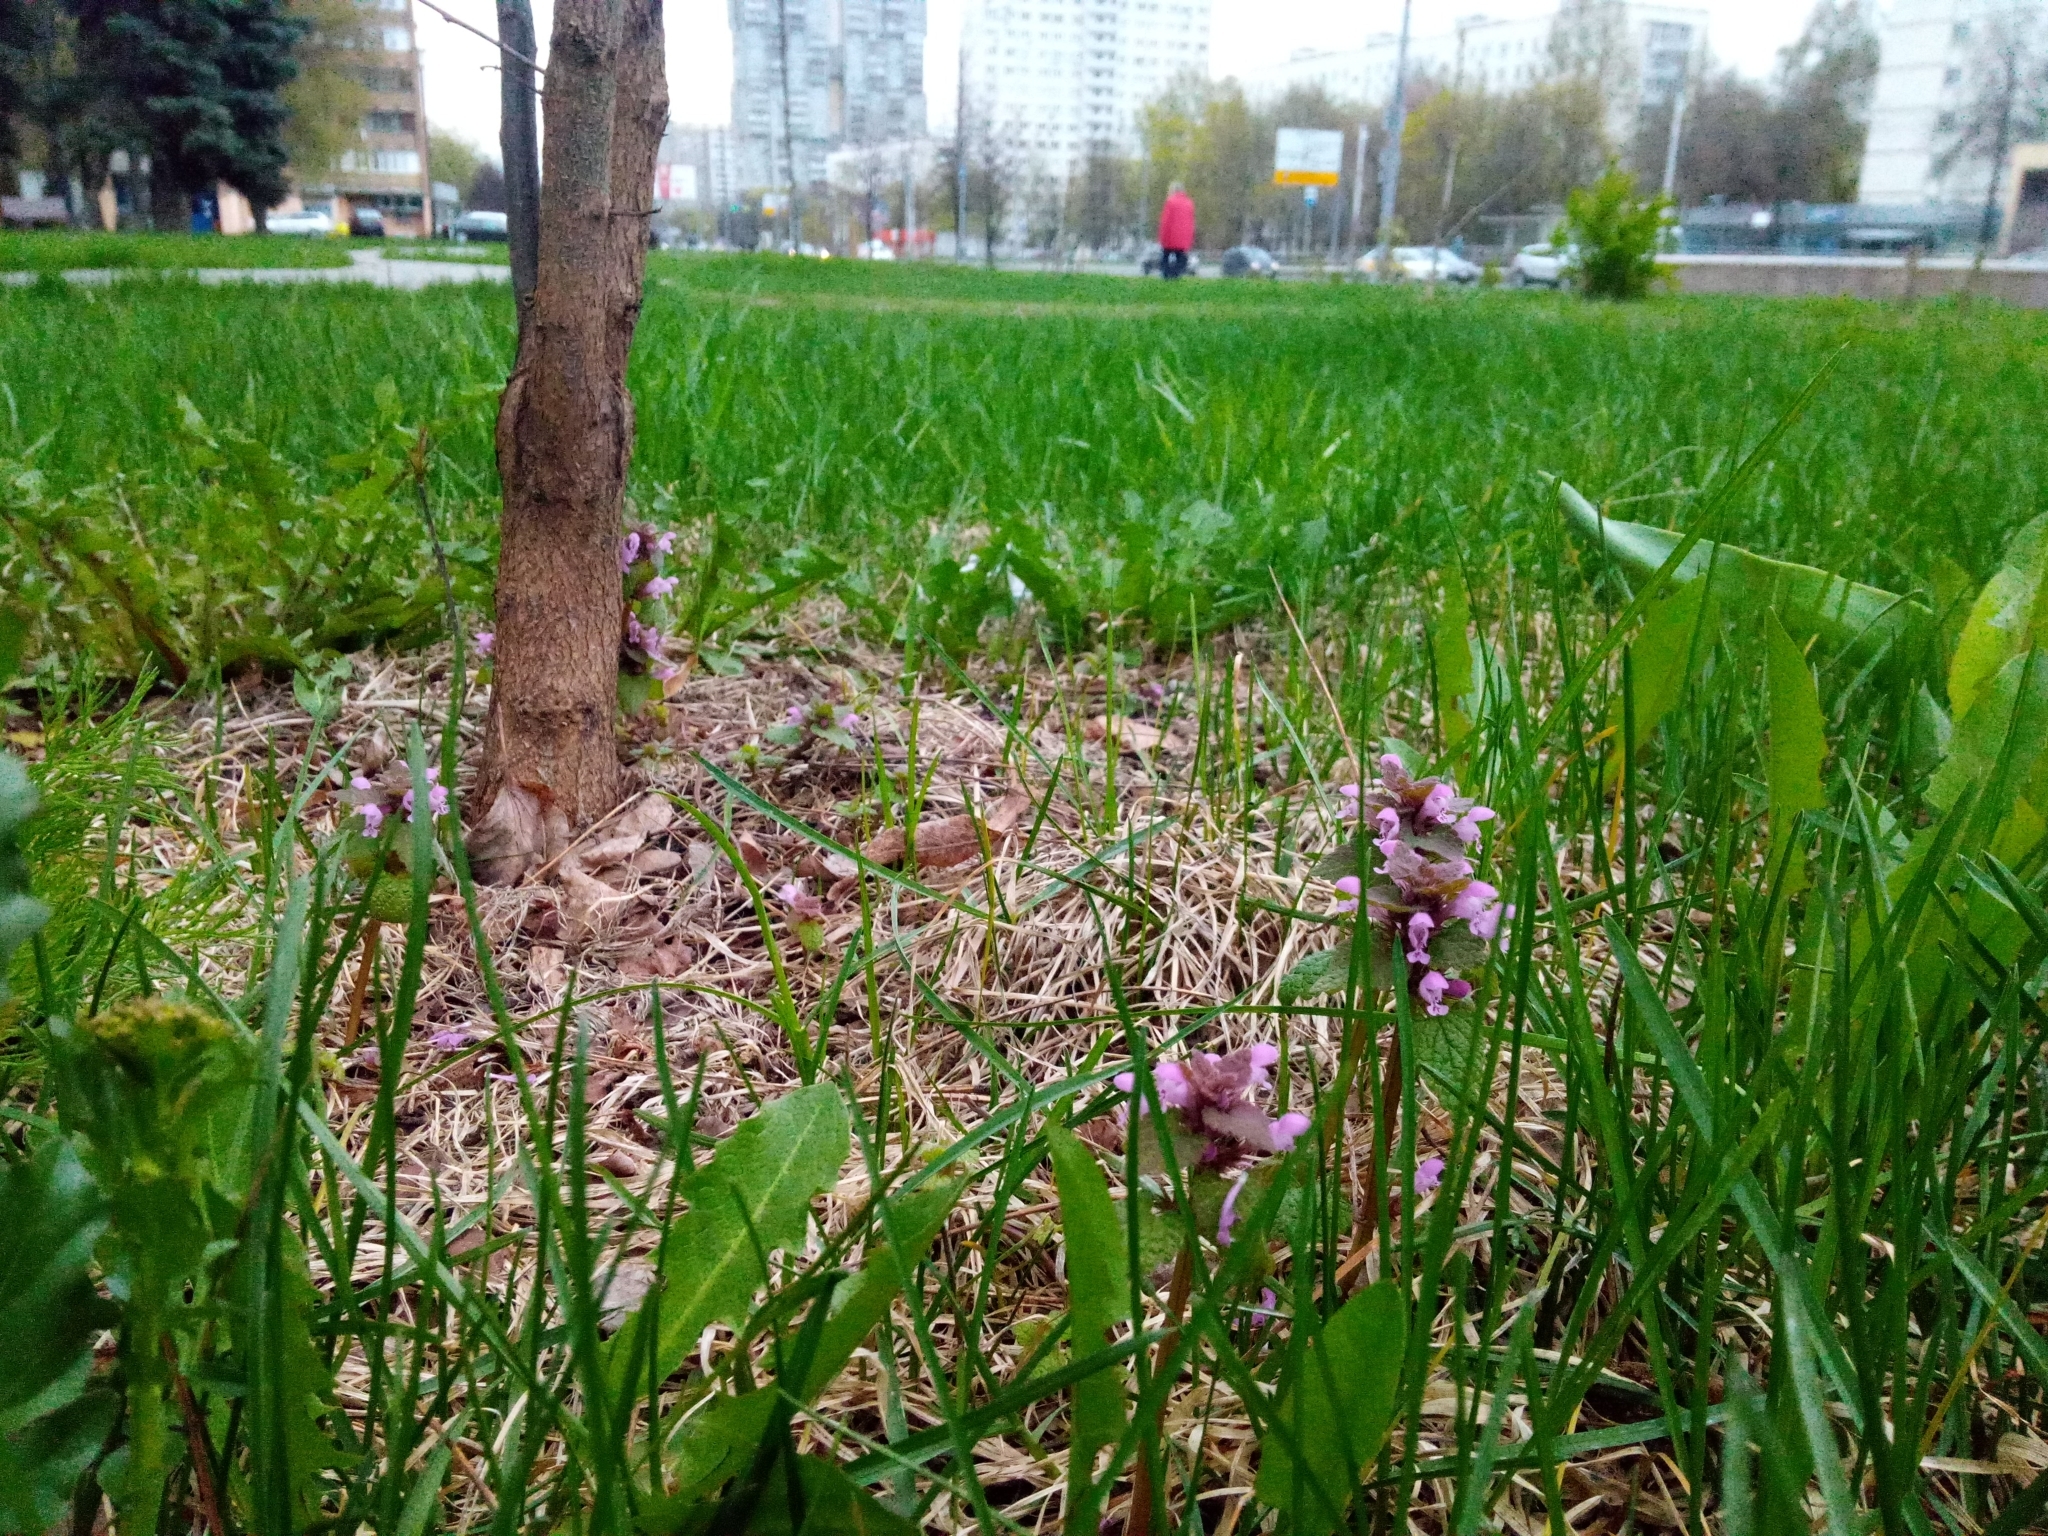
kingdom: Plantae
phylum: Tracheophyta
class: Magnoliopsida
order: Lamiales
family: Lamiaceae
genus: Lamium
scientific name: Lamium purpureum
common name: Red dead-nettle
